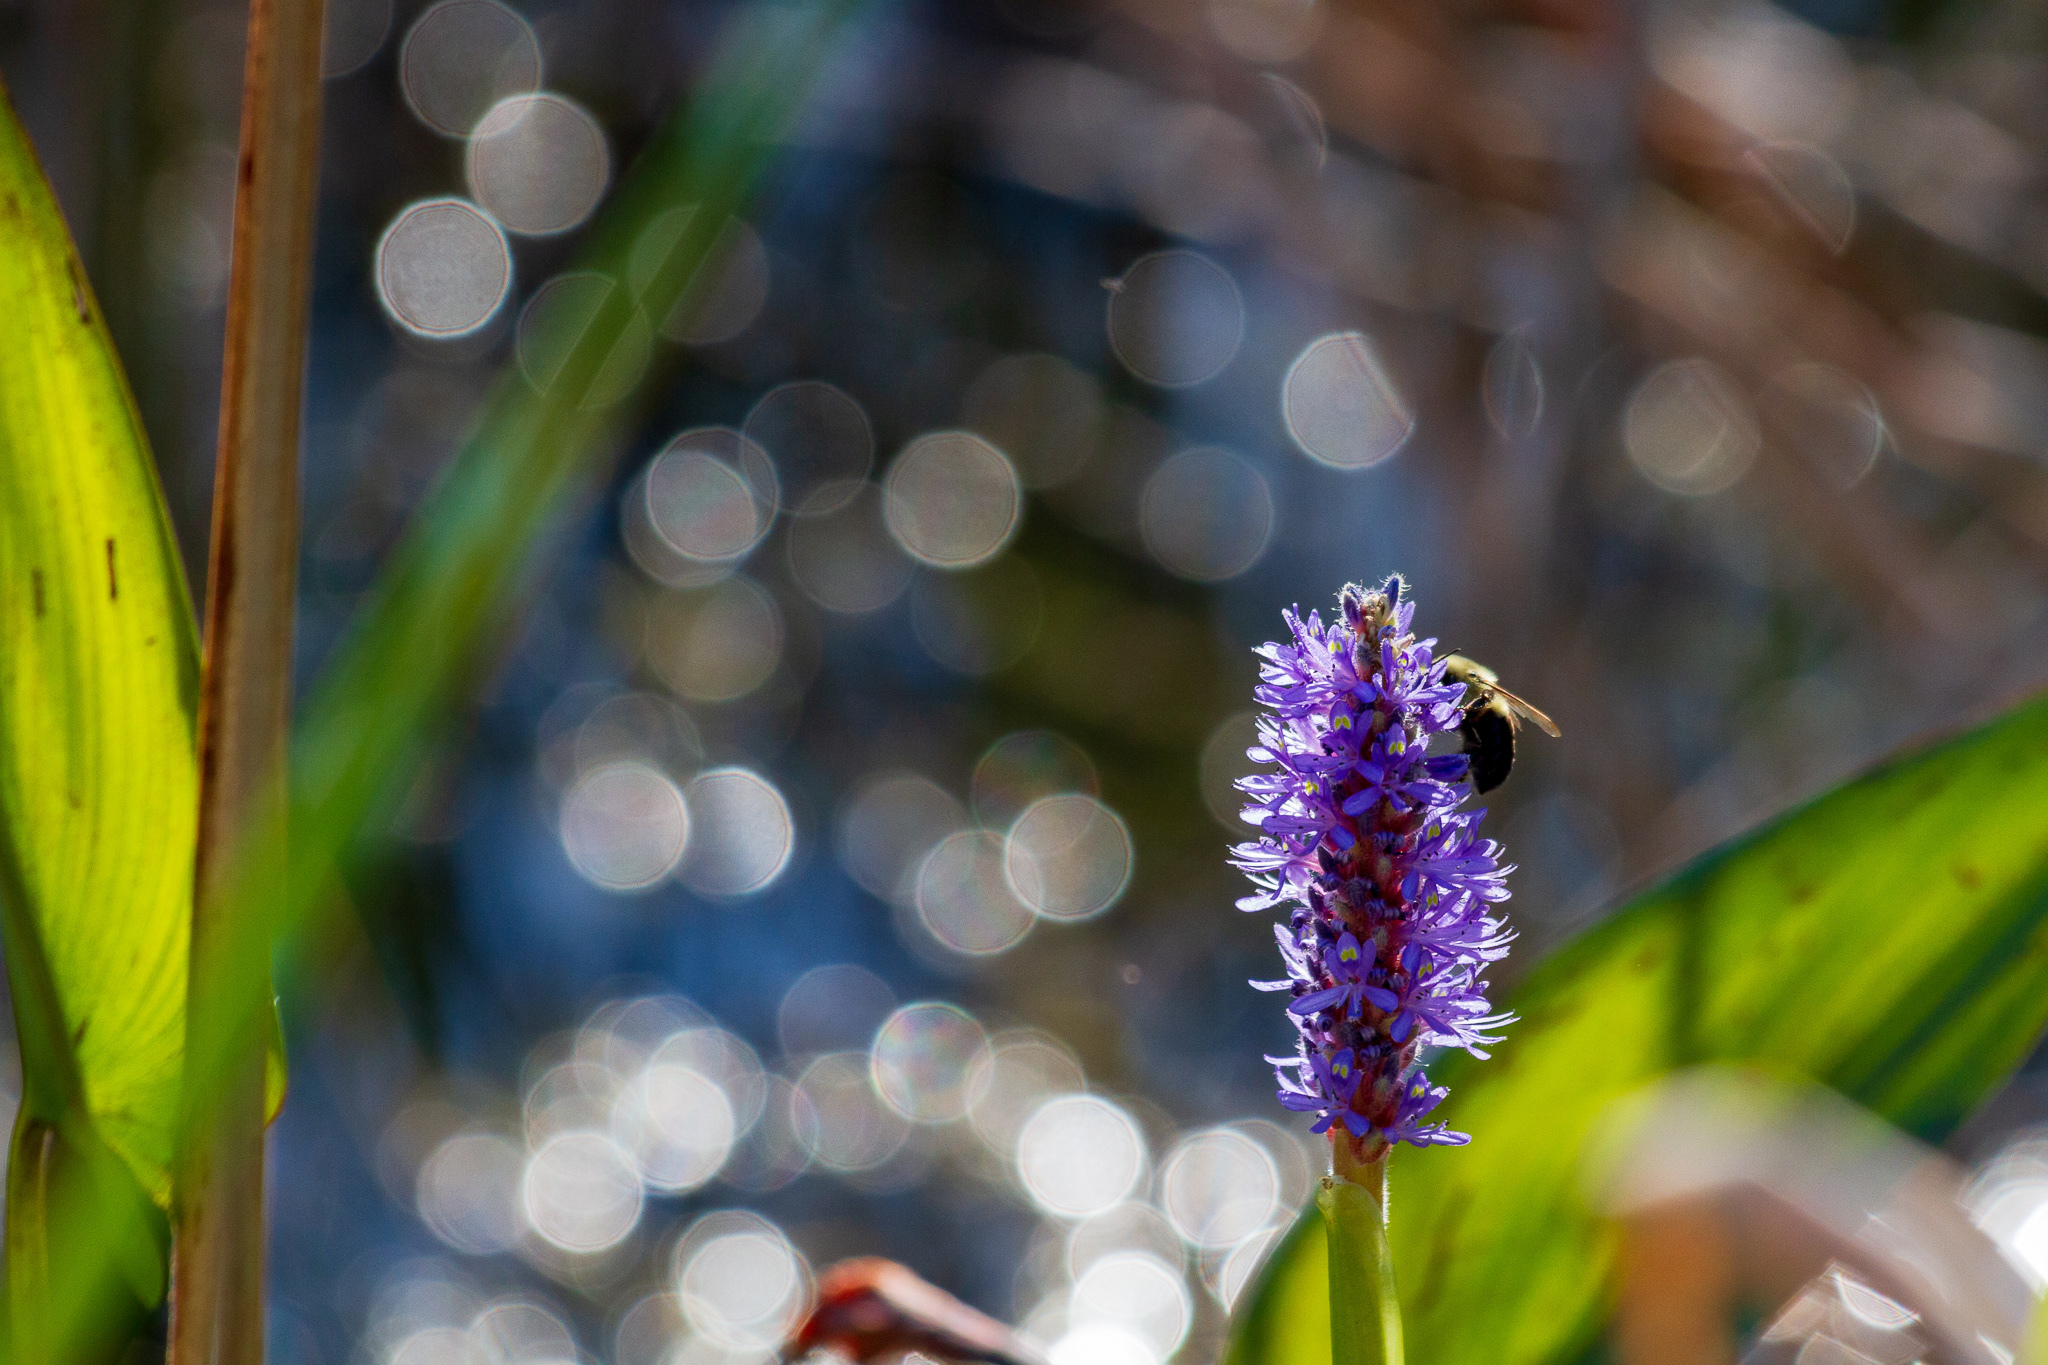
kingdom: Plantae
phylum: Tracheophyta
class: Liliopsida
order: Commelinales
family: Pontederiaceae
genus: Pontederia
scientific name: Pontederia cordata
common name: Pickerelweed
